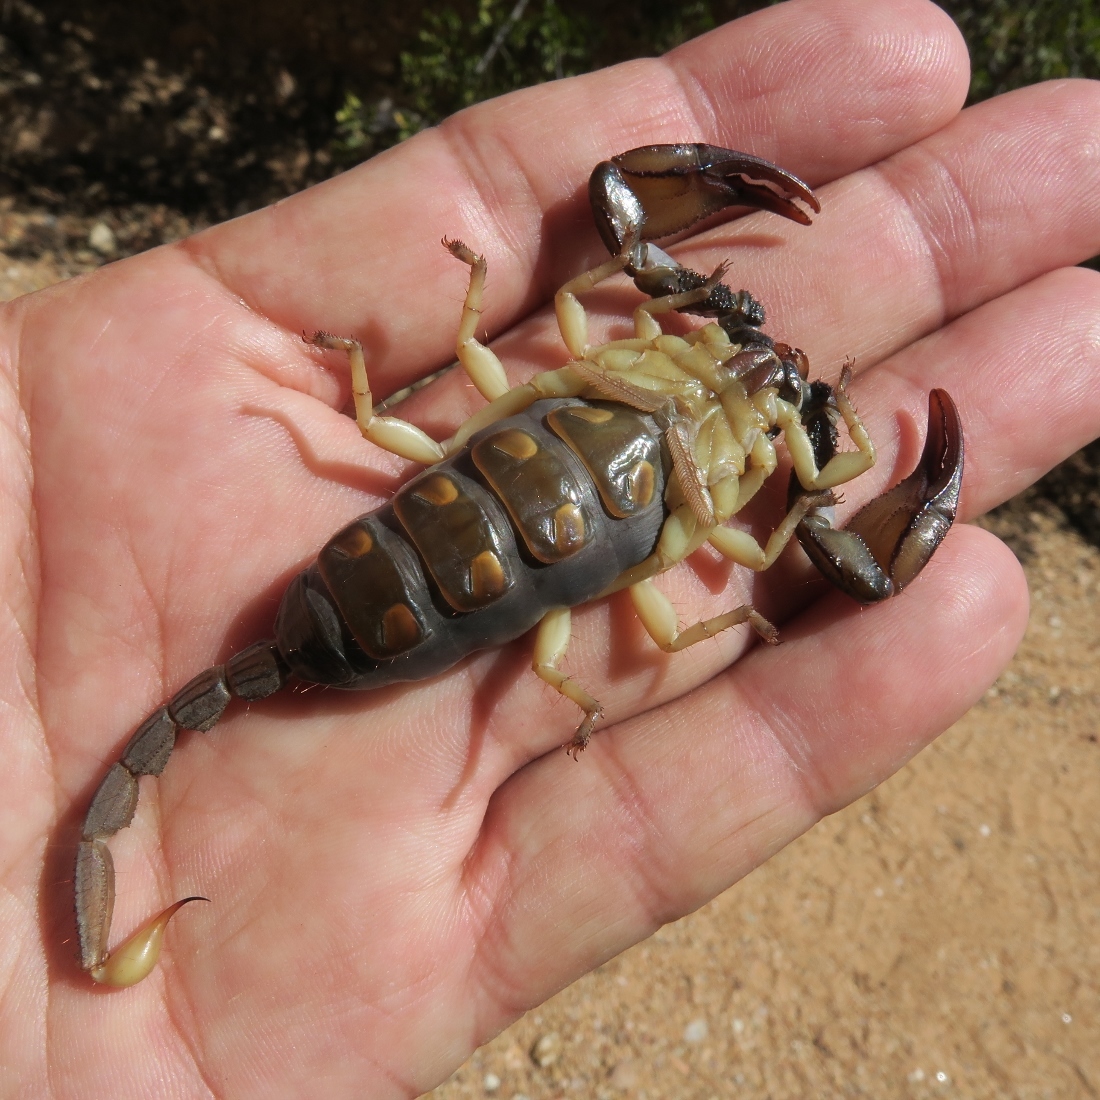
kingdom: Animalia
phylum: Arthropoda
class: Arachnida
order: Scorpiones
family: Scorpionidae
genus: Opistophthalmus
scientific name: Opistophthalmus pallipes
